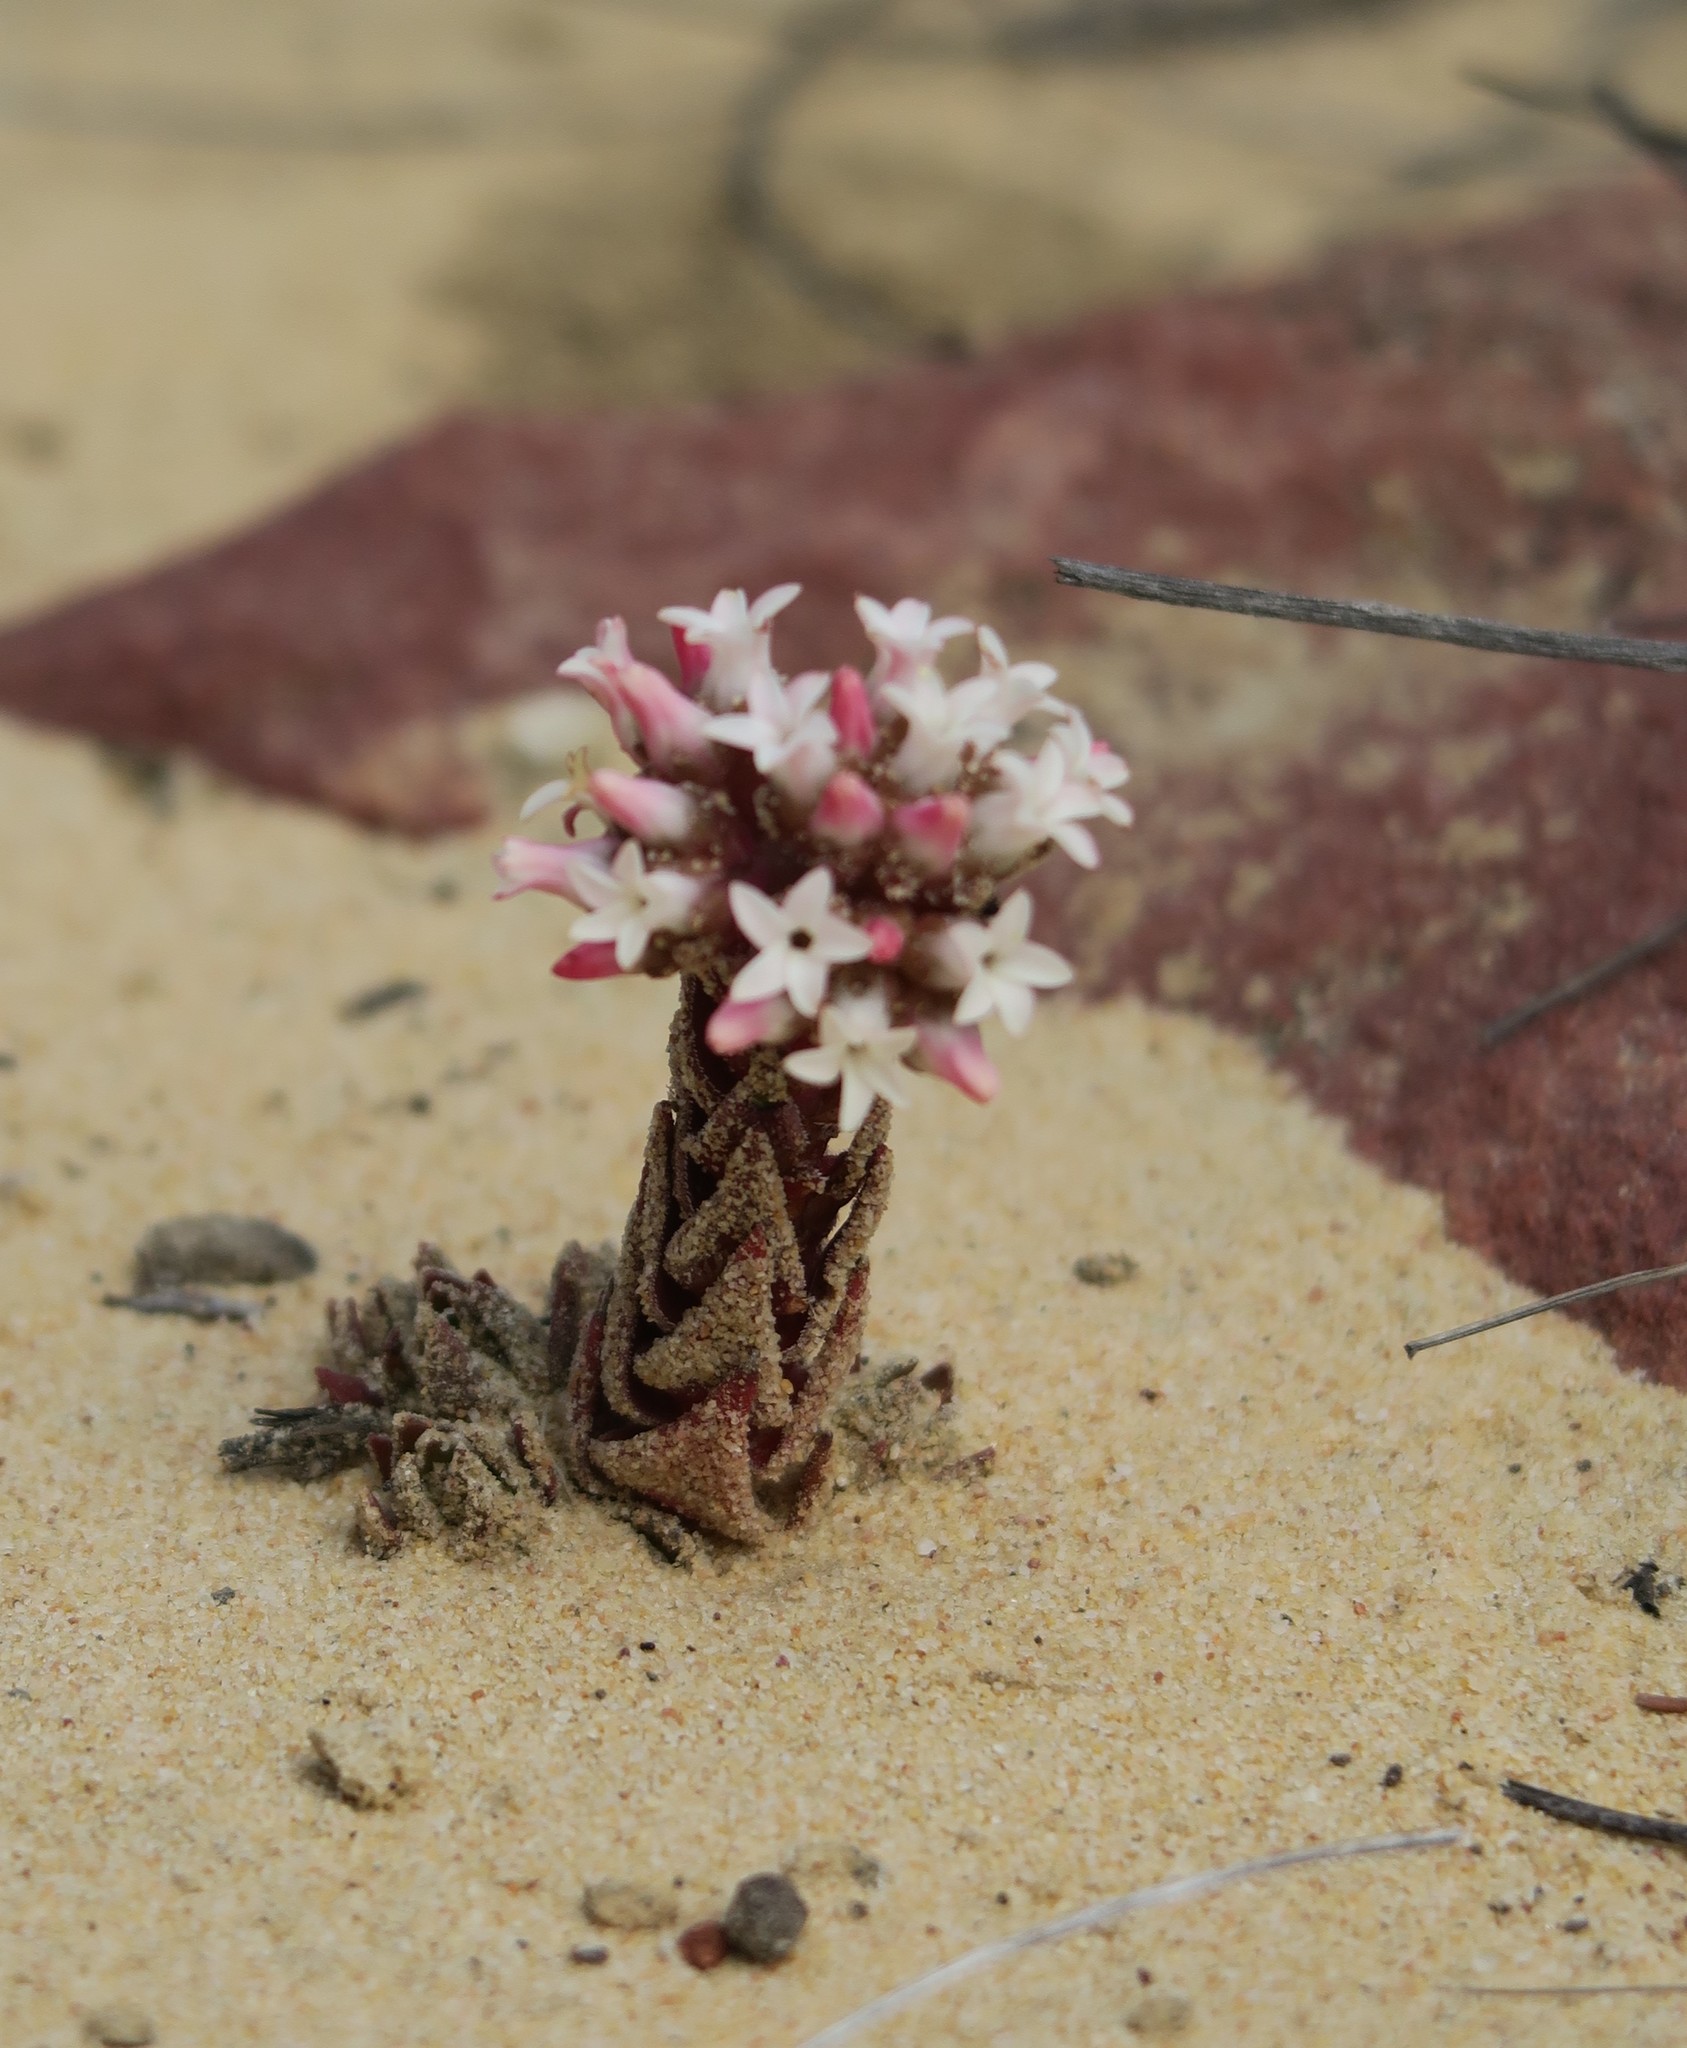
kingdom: Plantae
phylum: Tracheophyta
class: Magnoliopsida
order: Saxifragales
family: Crassulaceae
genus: Crassula
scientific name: Crassula alpestris
